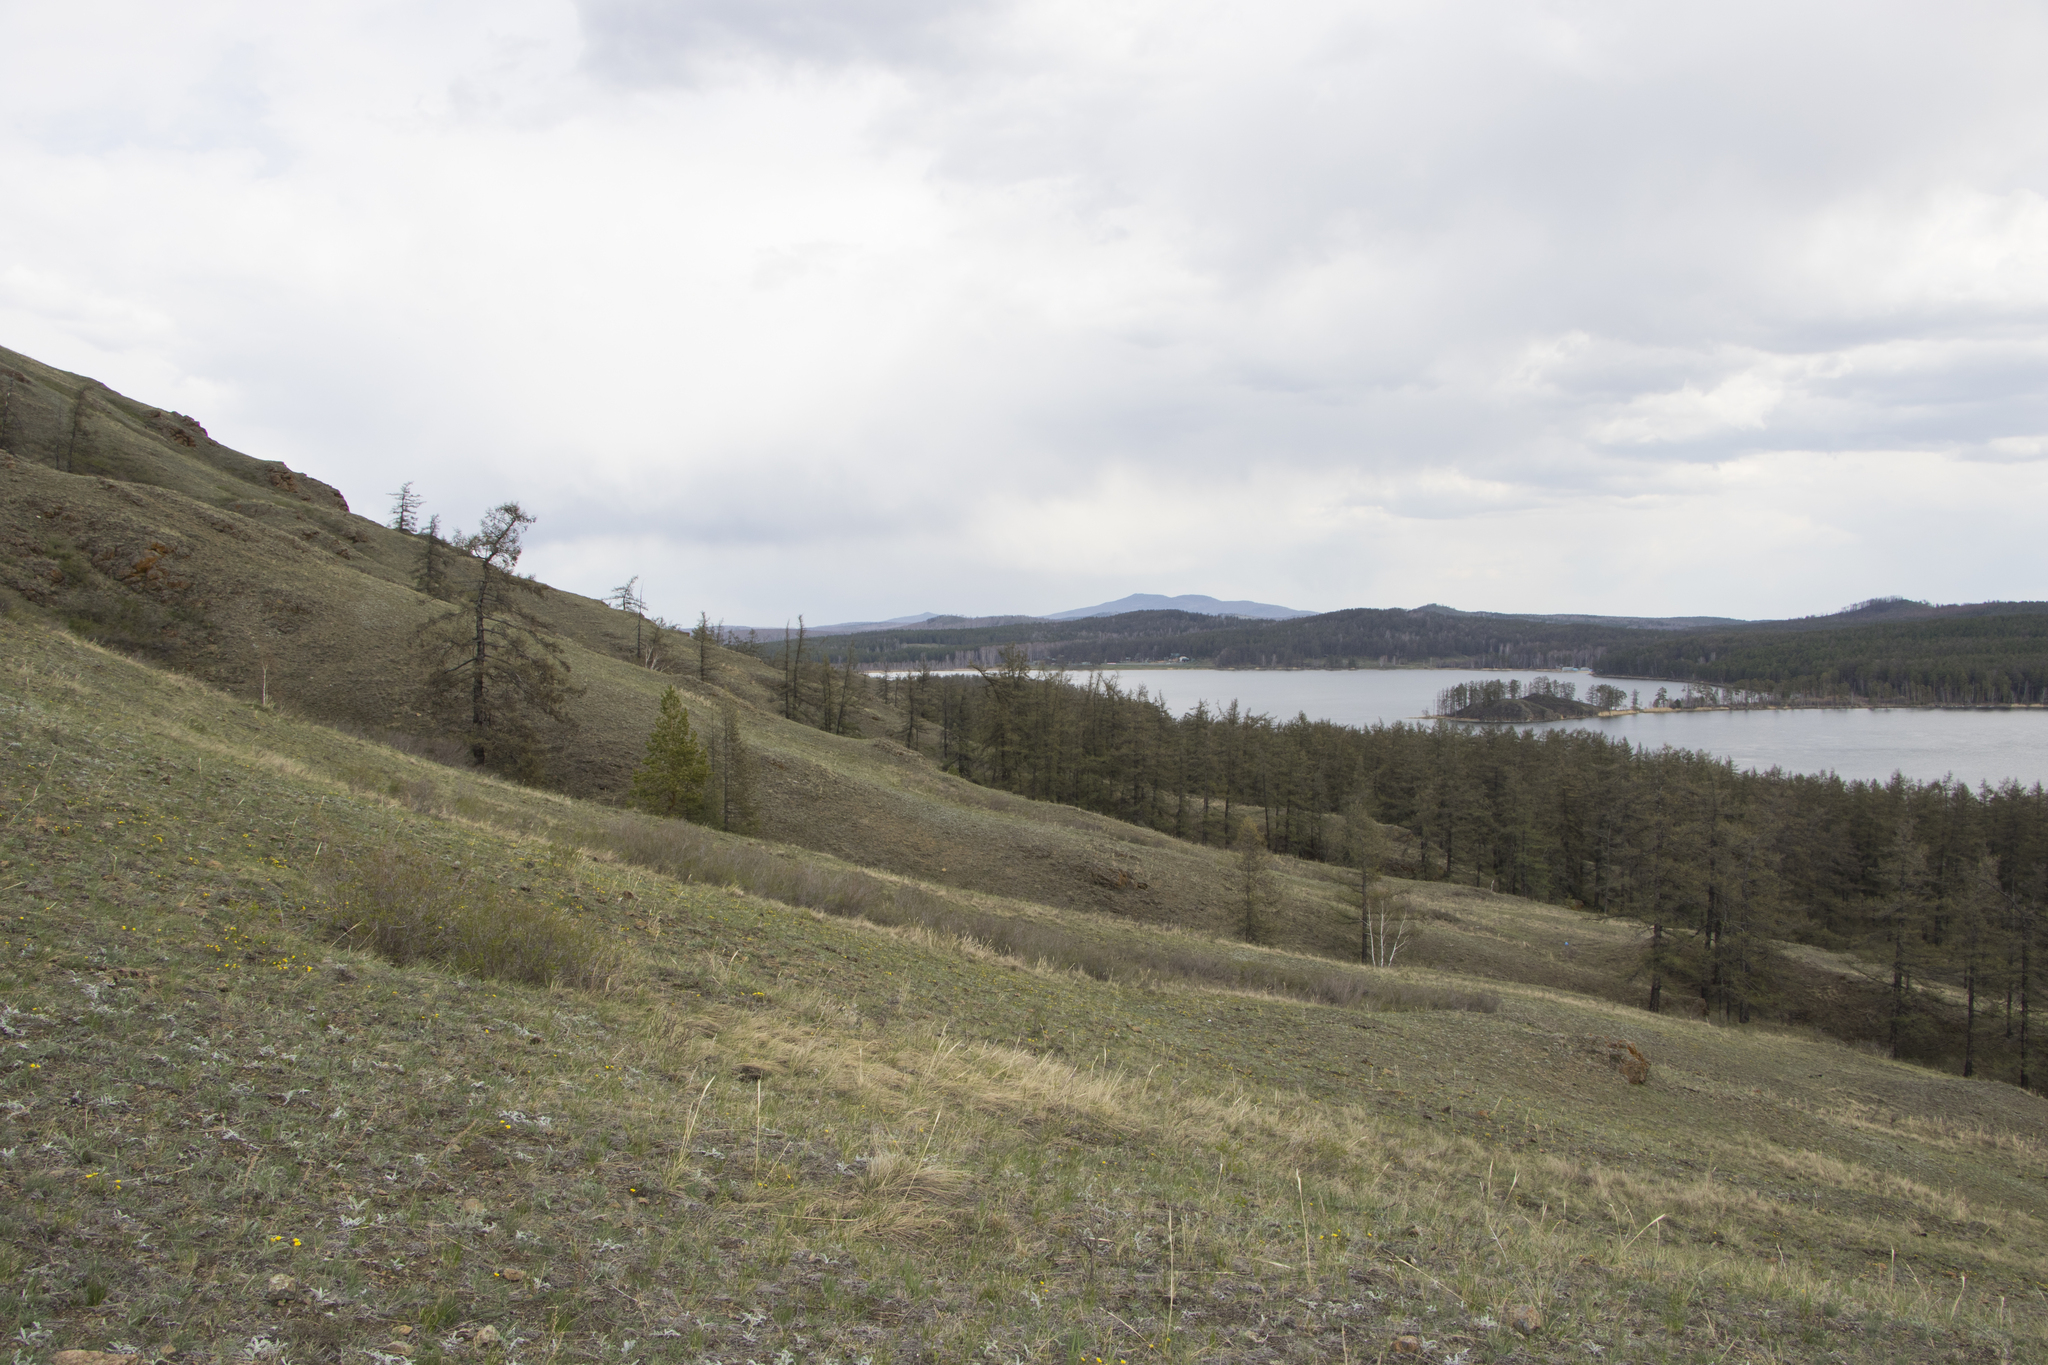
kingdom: Plantae
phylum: Tracheophyta
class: Pinopsida
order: Pinales
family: Pinaceae
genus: Larix
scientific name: Larix sibirica
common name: Siberian larch
